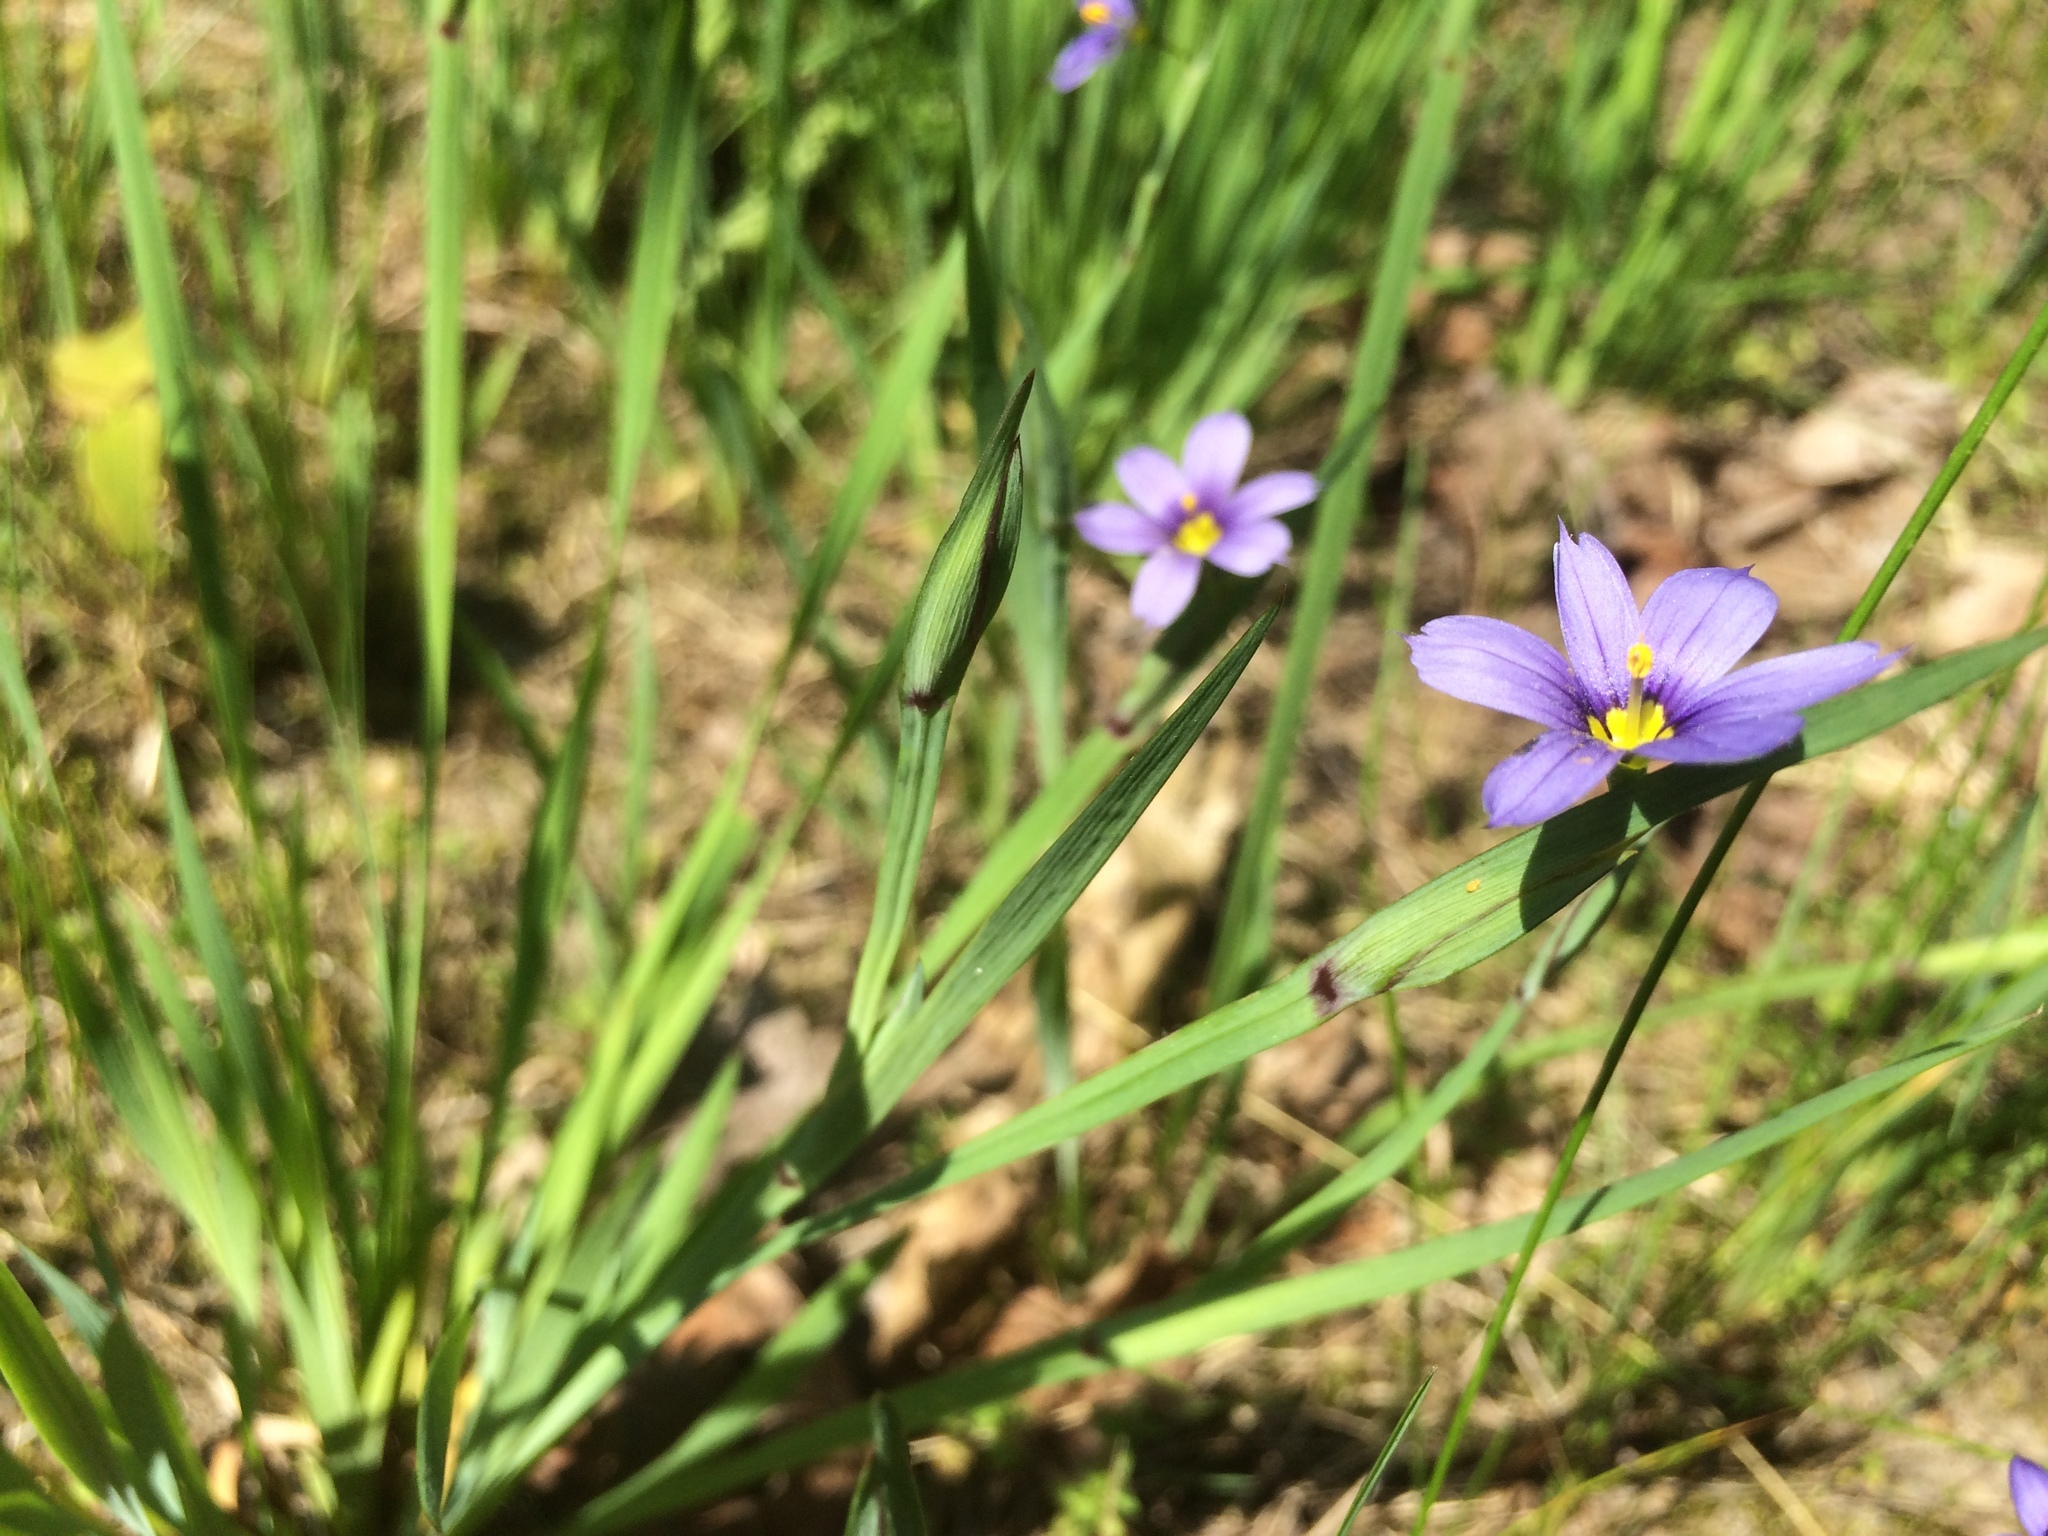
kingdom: Plantae
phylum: Tracheophyta
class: Liliopsida
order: Asparagales
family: Iridaceae
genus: Sisyrinchium
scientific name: Sisyrinchium montanum
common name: American blue-eyed-grass
